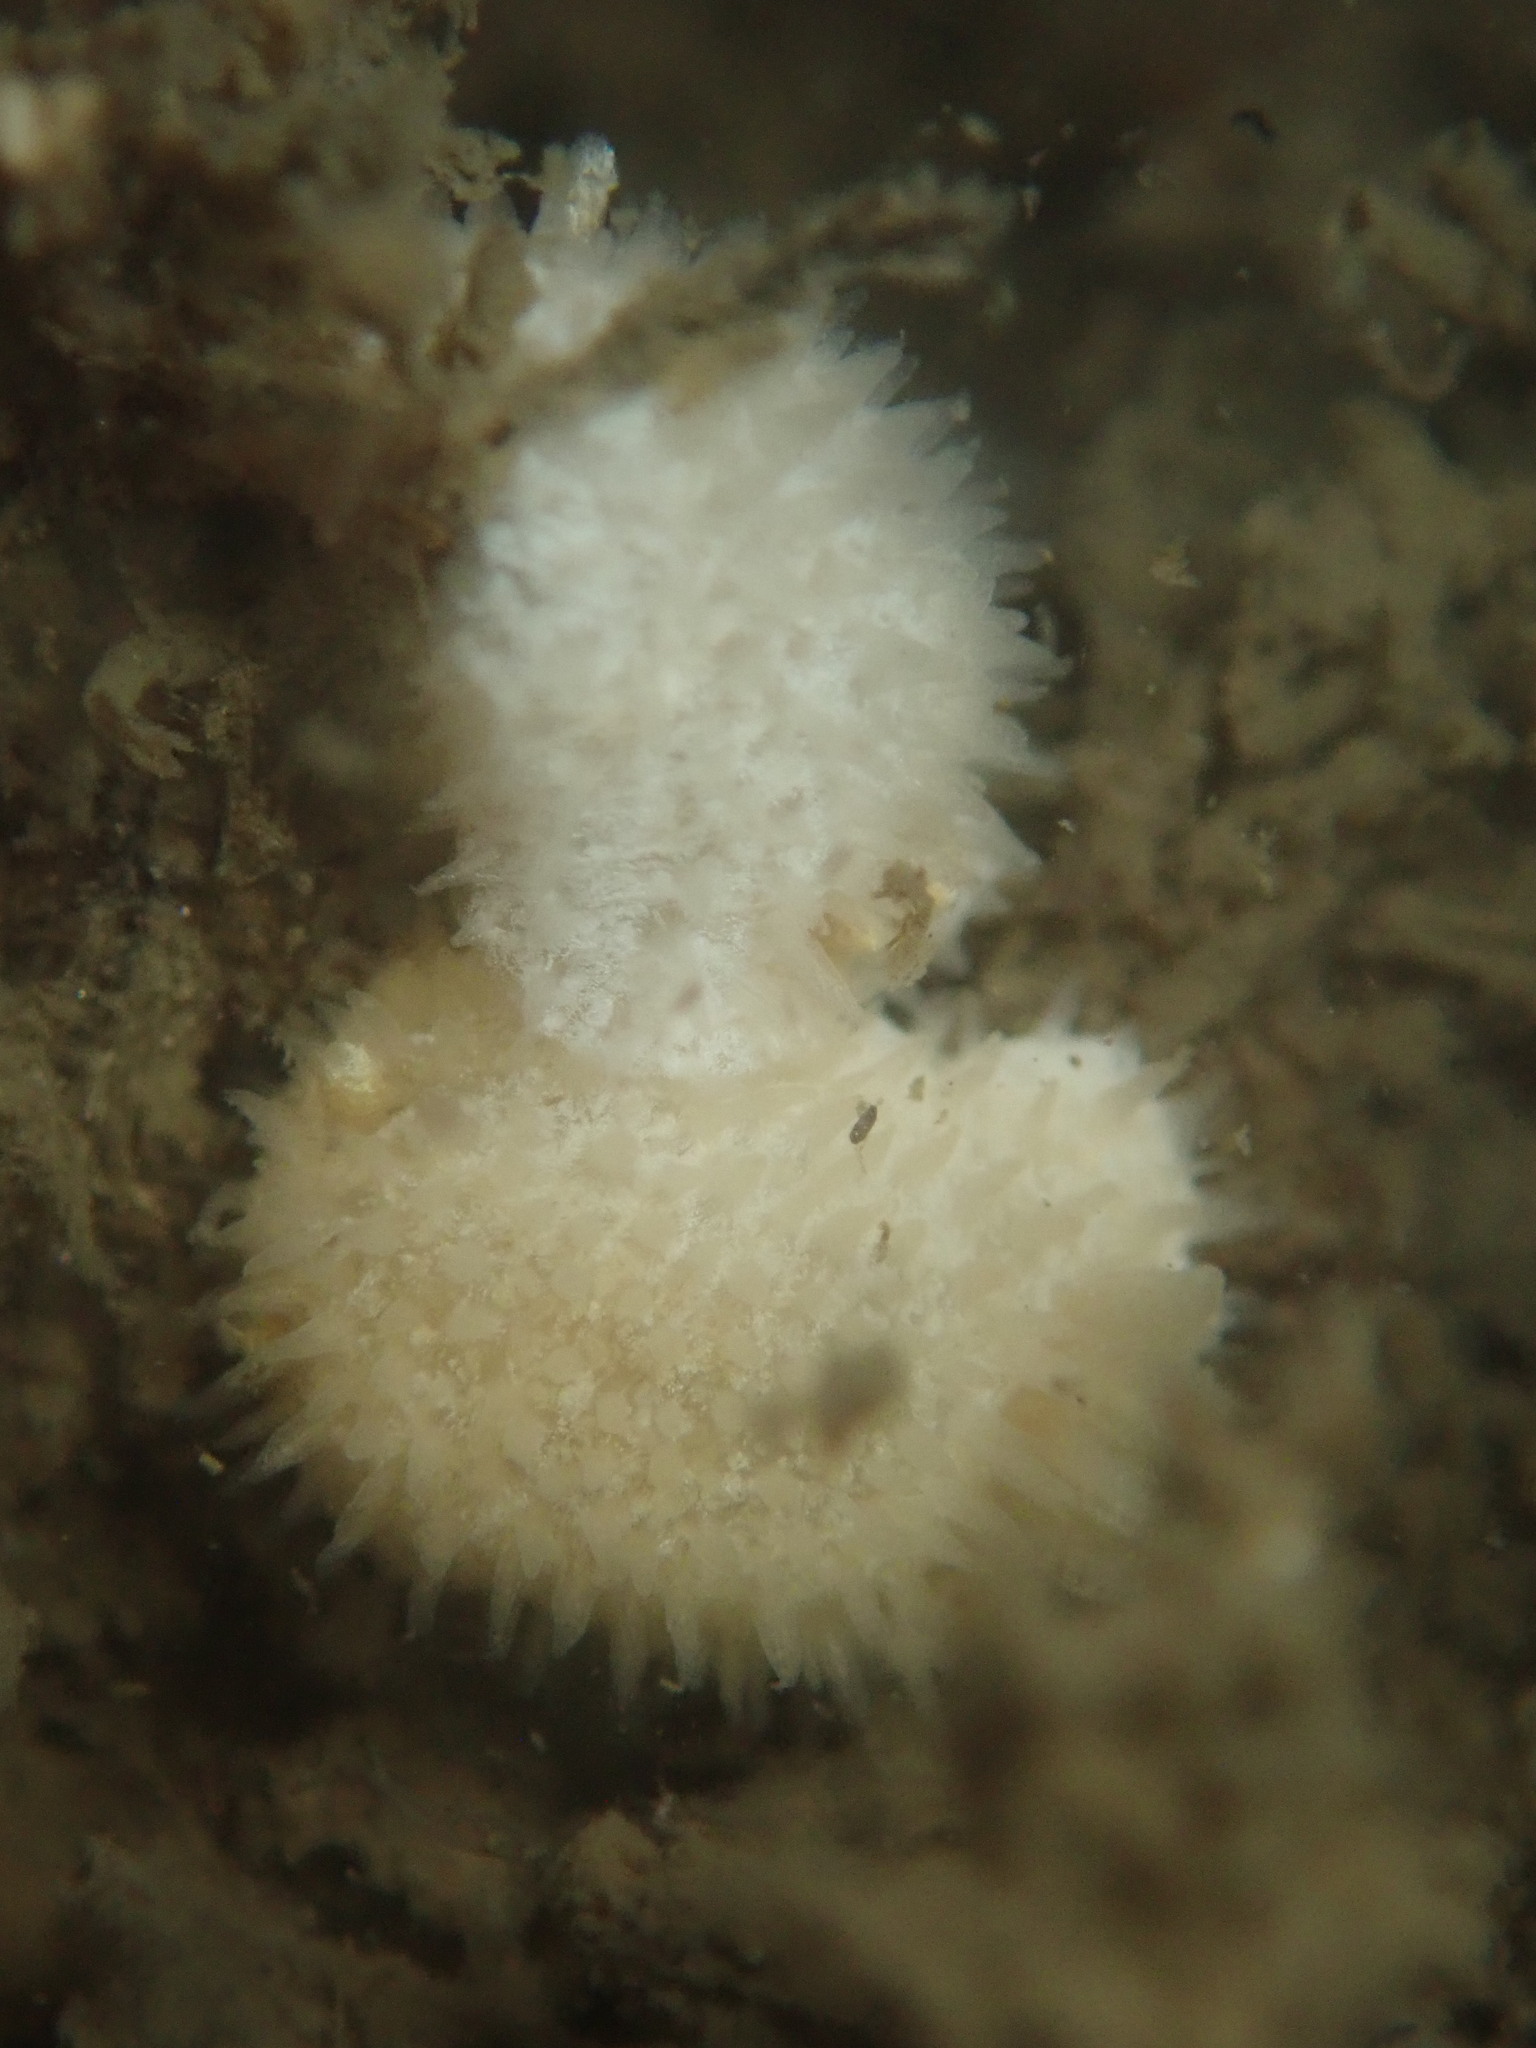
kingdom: Animalia
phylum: Mollusca
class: Gastropoda
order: Nudibranchia
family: Calycidorididae
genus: Diaphorodoris
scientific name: Diaphorodoris lirulatocauda
